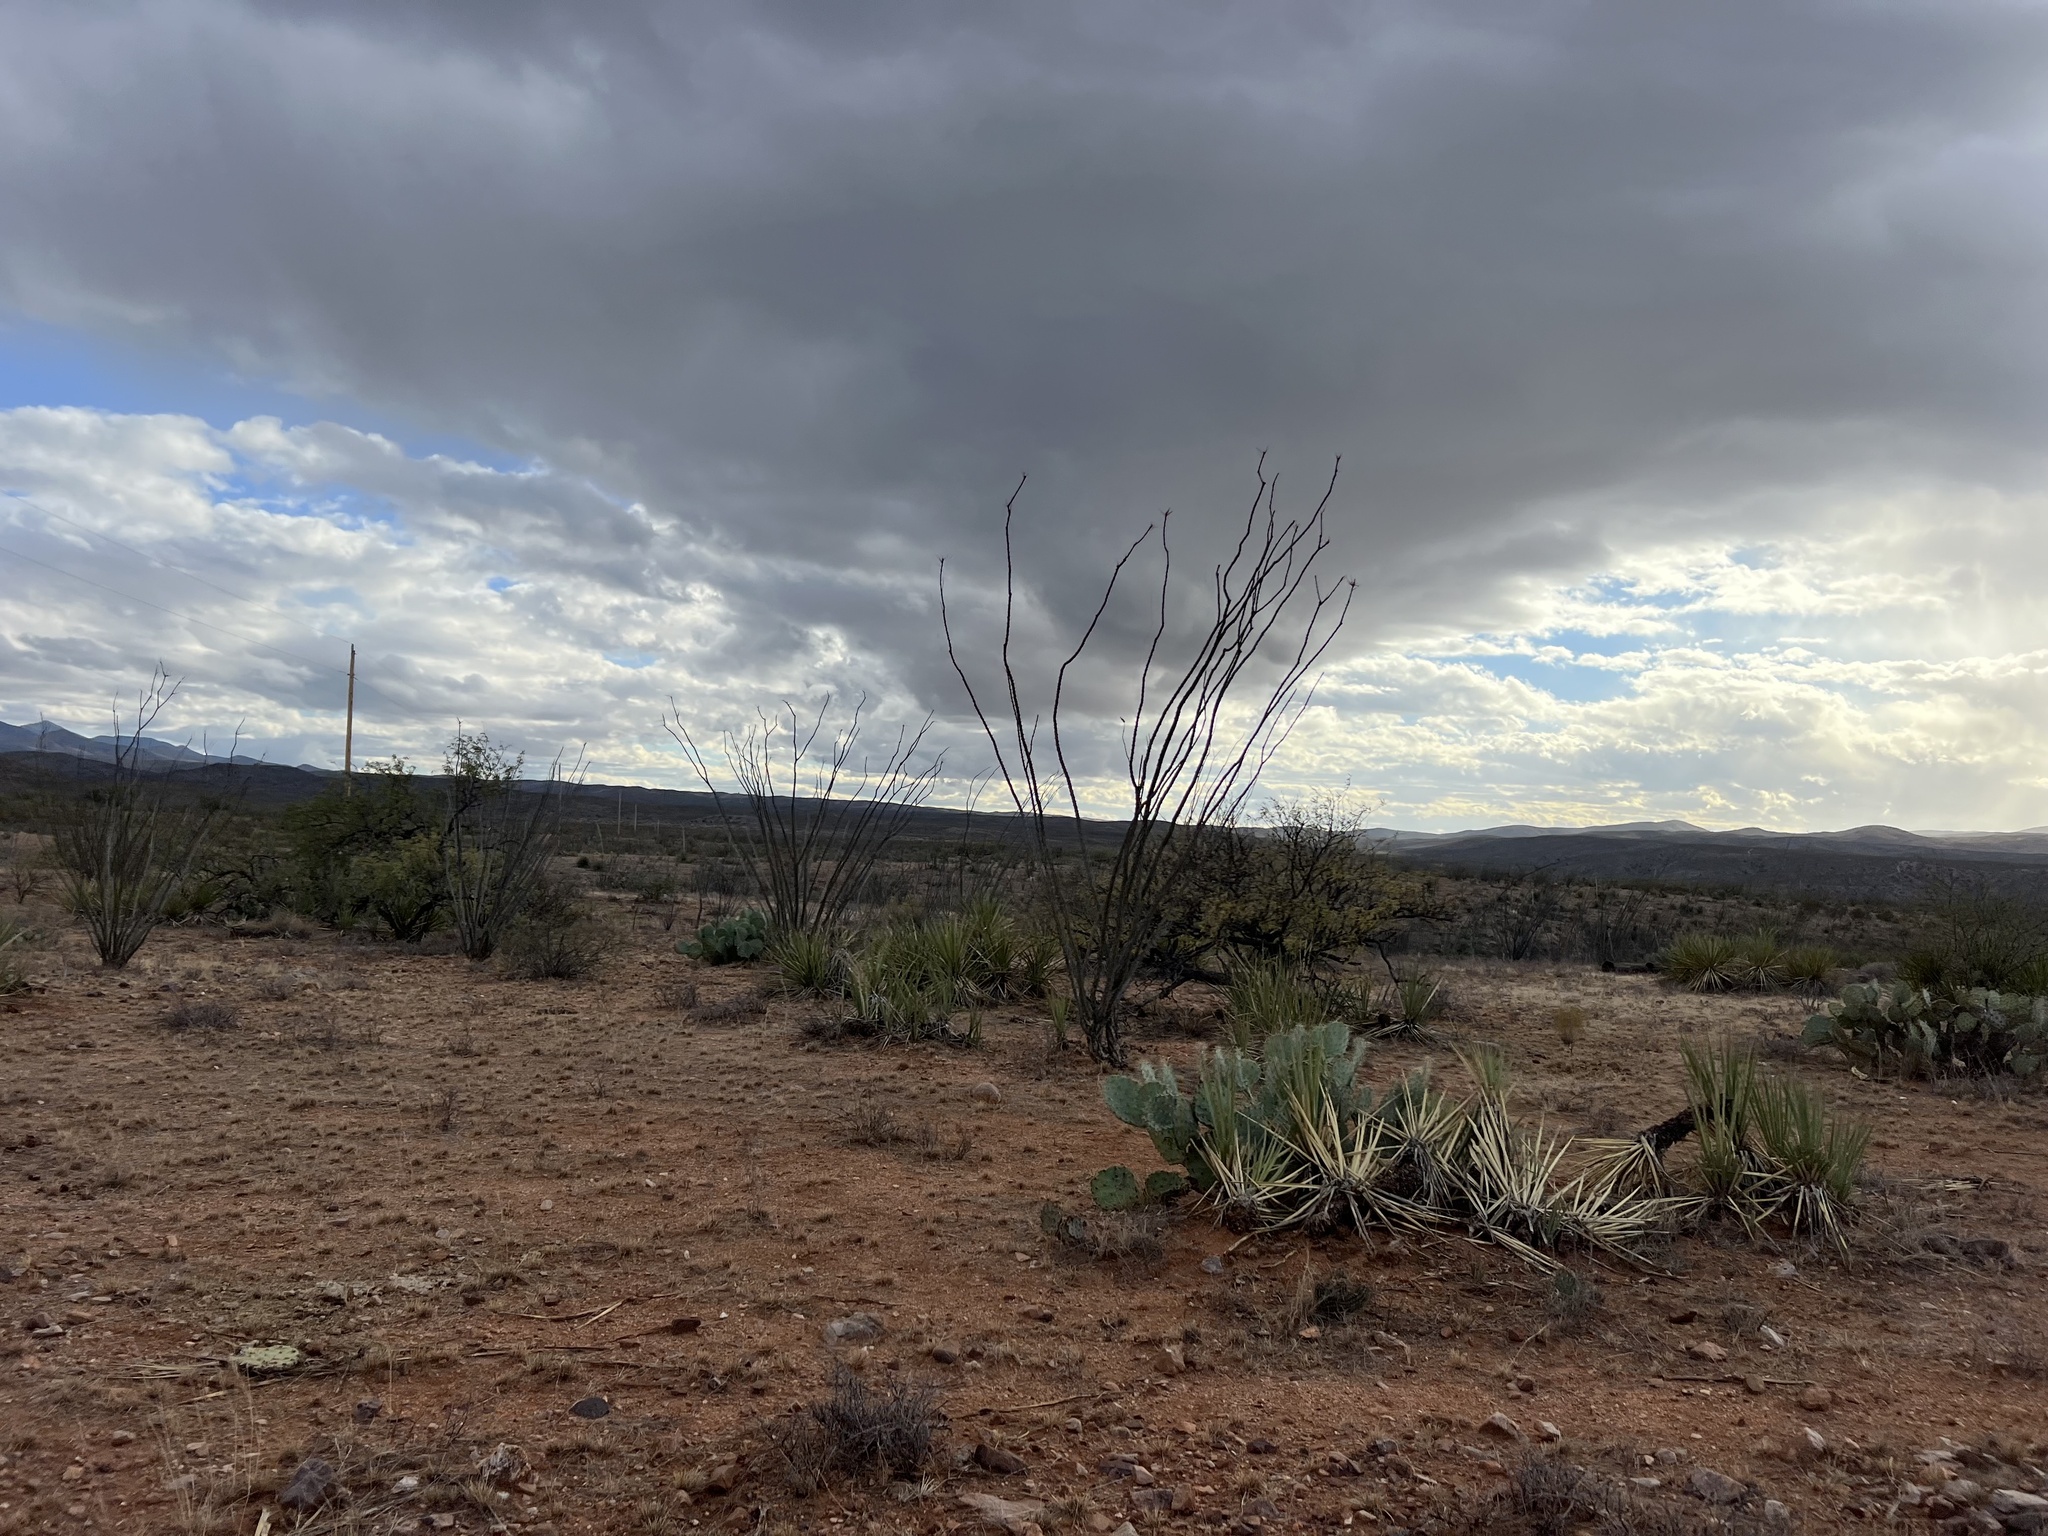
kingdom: Plantae
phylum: Tracheophyta
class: Magnoliopsida
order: Ericales
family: Fouquieriaceae
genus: Fouquieria
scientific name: Fouquieria splendens
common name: Vine-cactus
